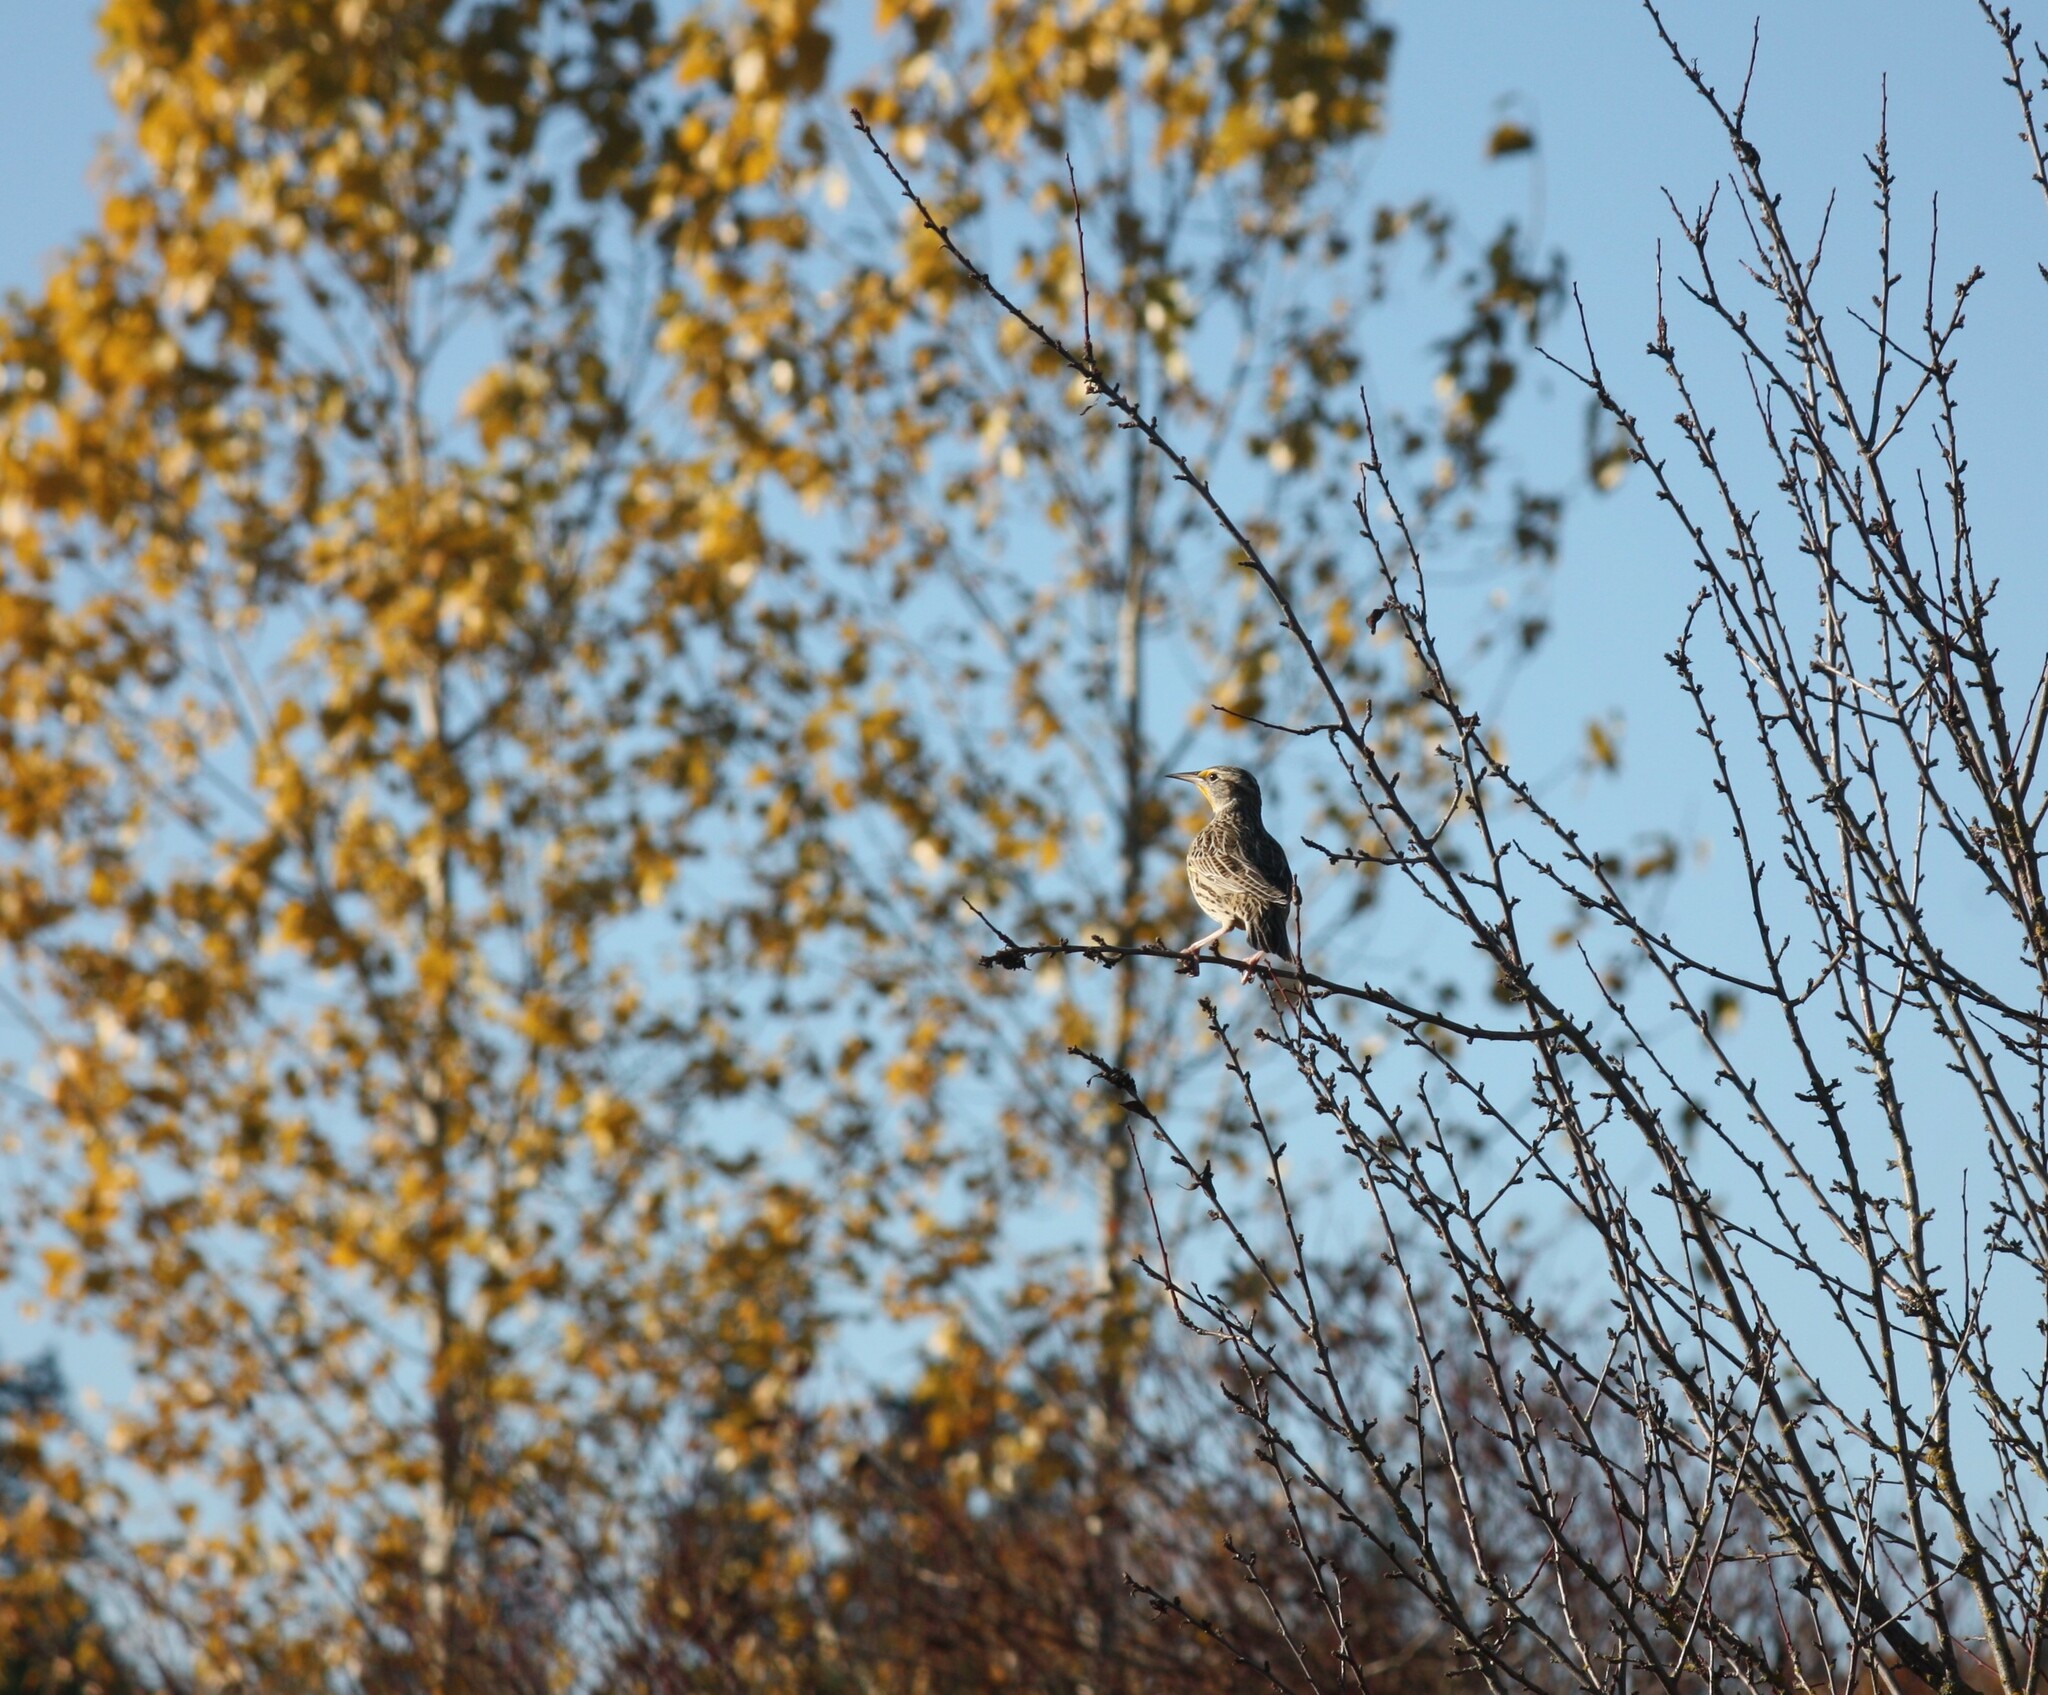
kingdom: Animalia
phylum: Chordata
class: Aves
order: Passeriformes
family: Icteridae
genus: Sturnella
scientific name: Sturnella neglecta
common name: Western meadowlark
